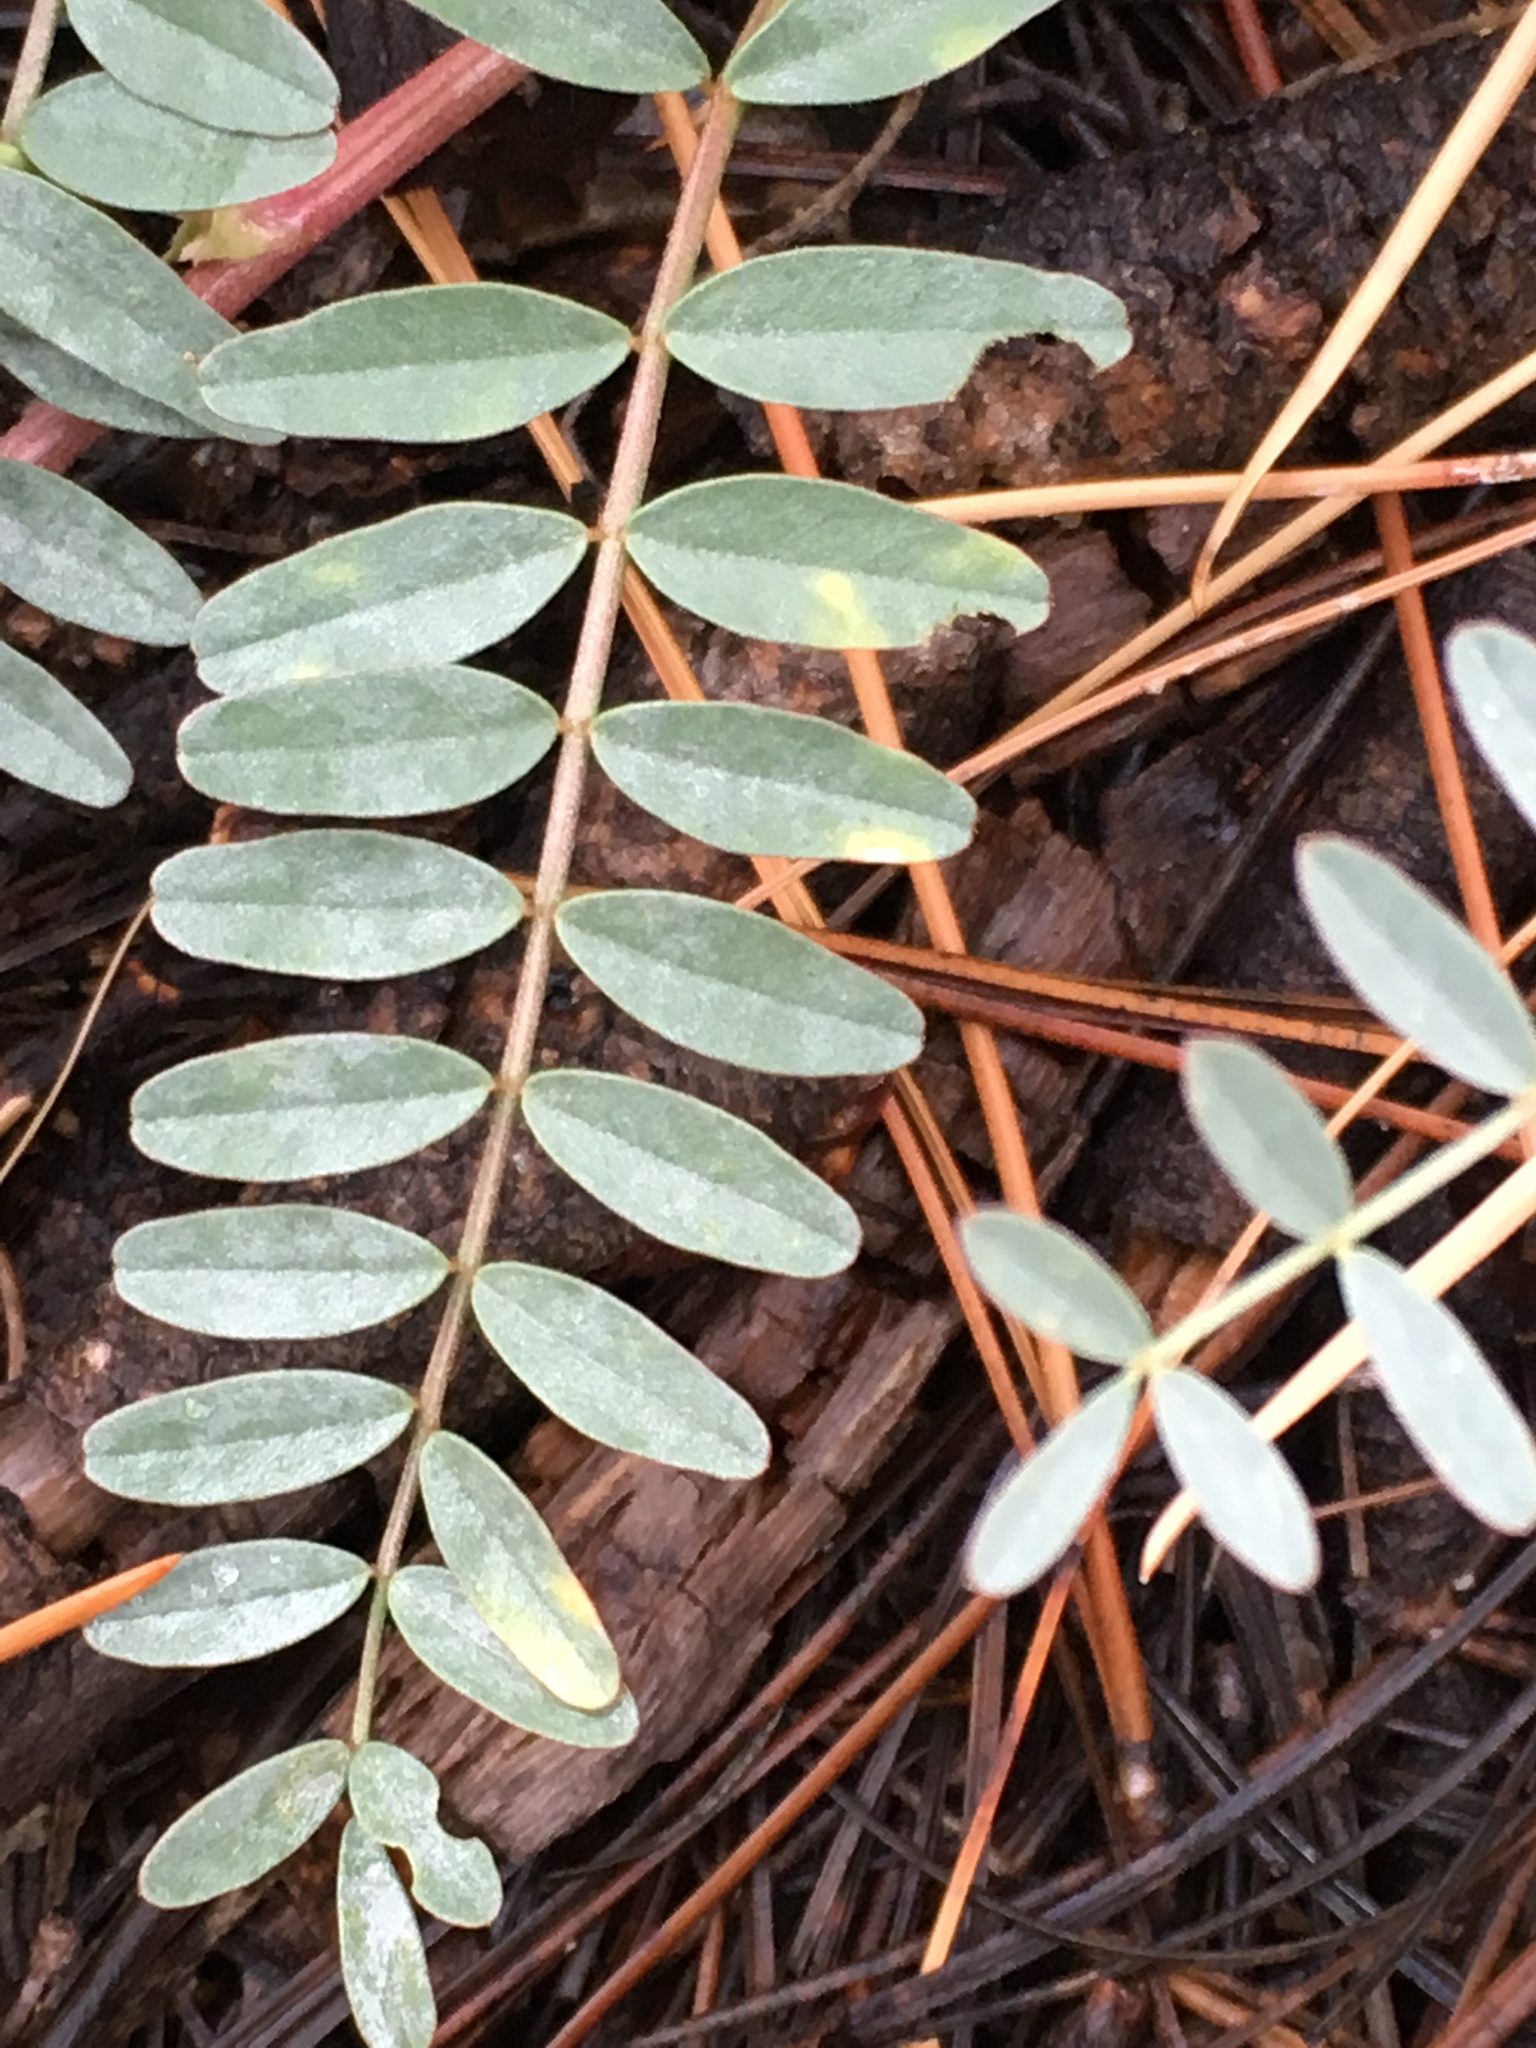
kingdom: Plantae
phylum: Tracheophyta
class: Magnoliopsida
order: Fabales
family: Fabaceae
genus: Astragalus
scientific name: Astragalus douglasii
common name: Jacumba milkvetch
